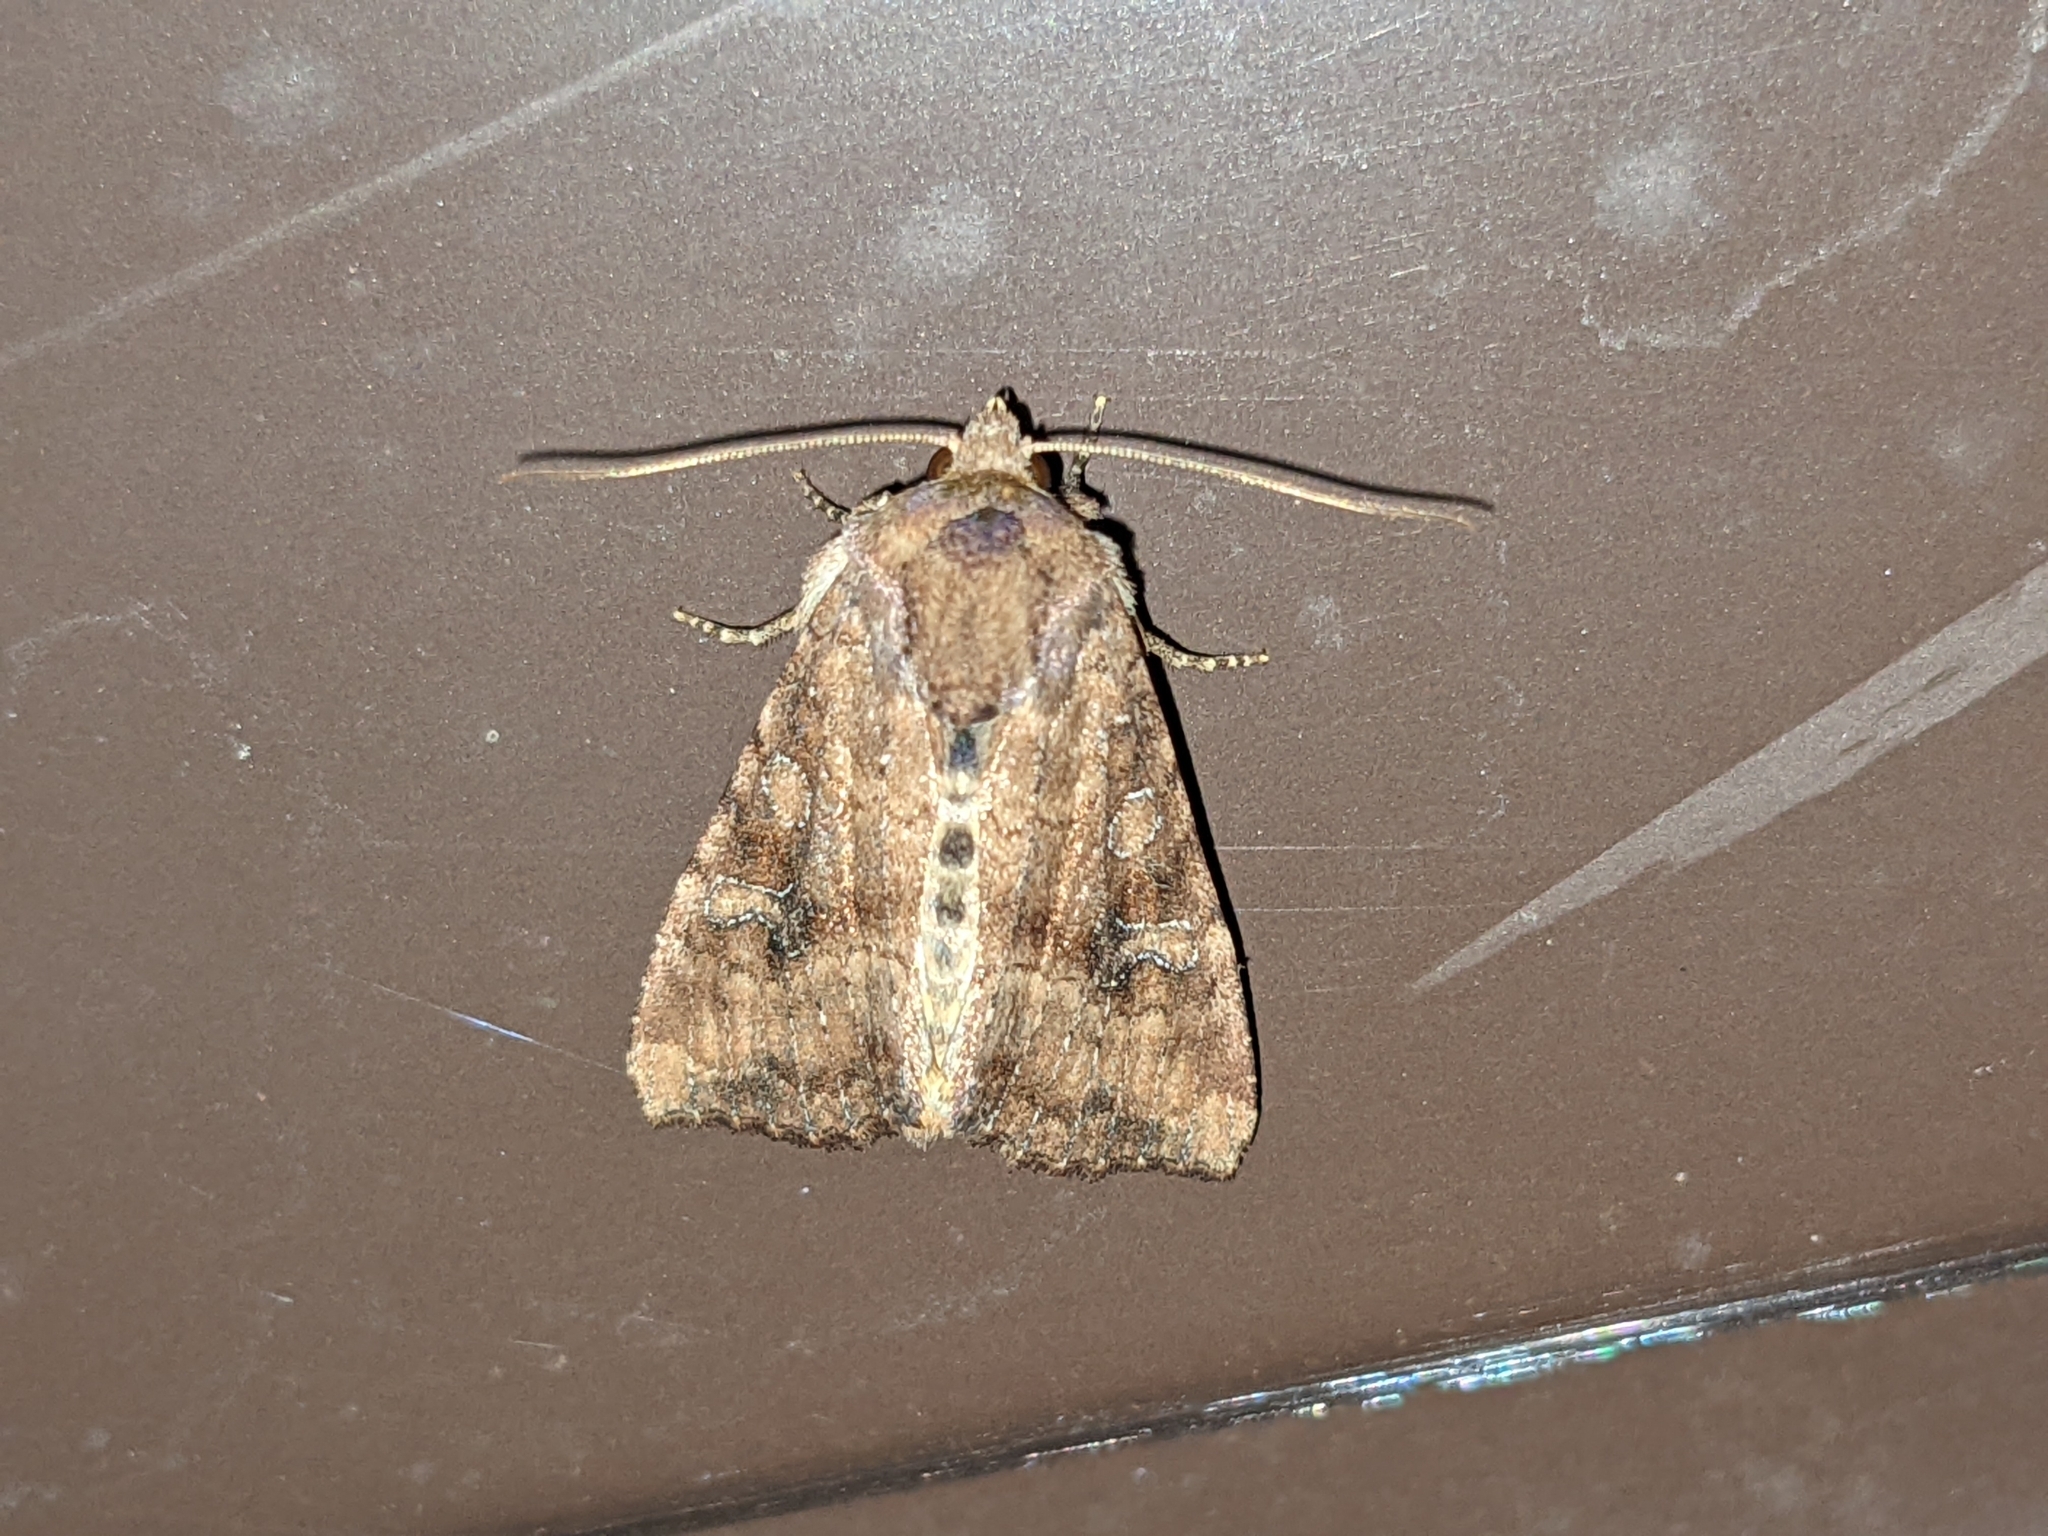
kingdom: Animalia
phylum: Arthropoda
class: Insecta
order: Lepidoptera
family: Noctuidae
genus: Loscopia
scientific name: Loscopia velata
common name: Veiled ear moth
